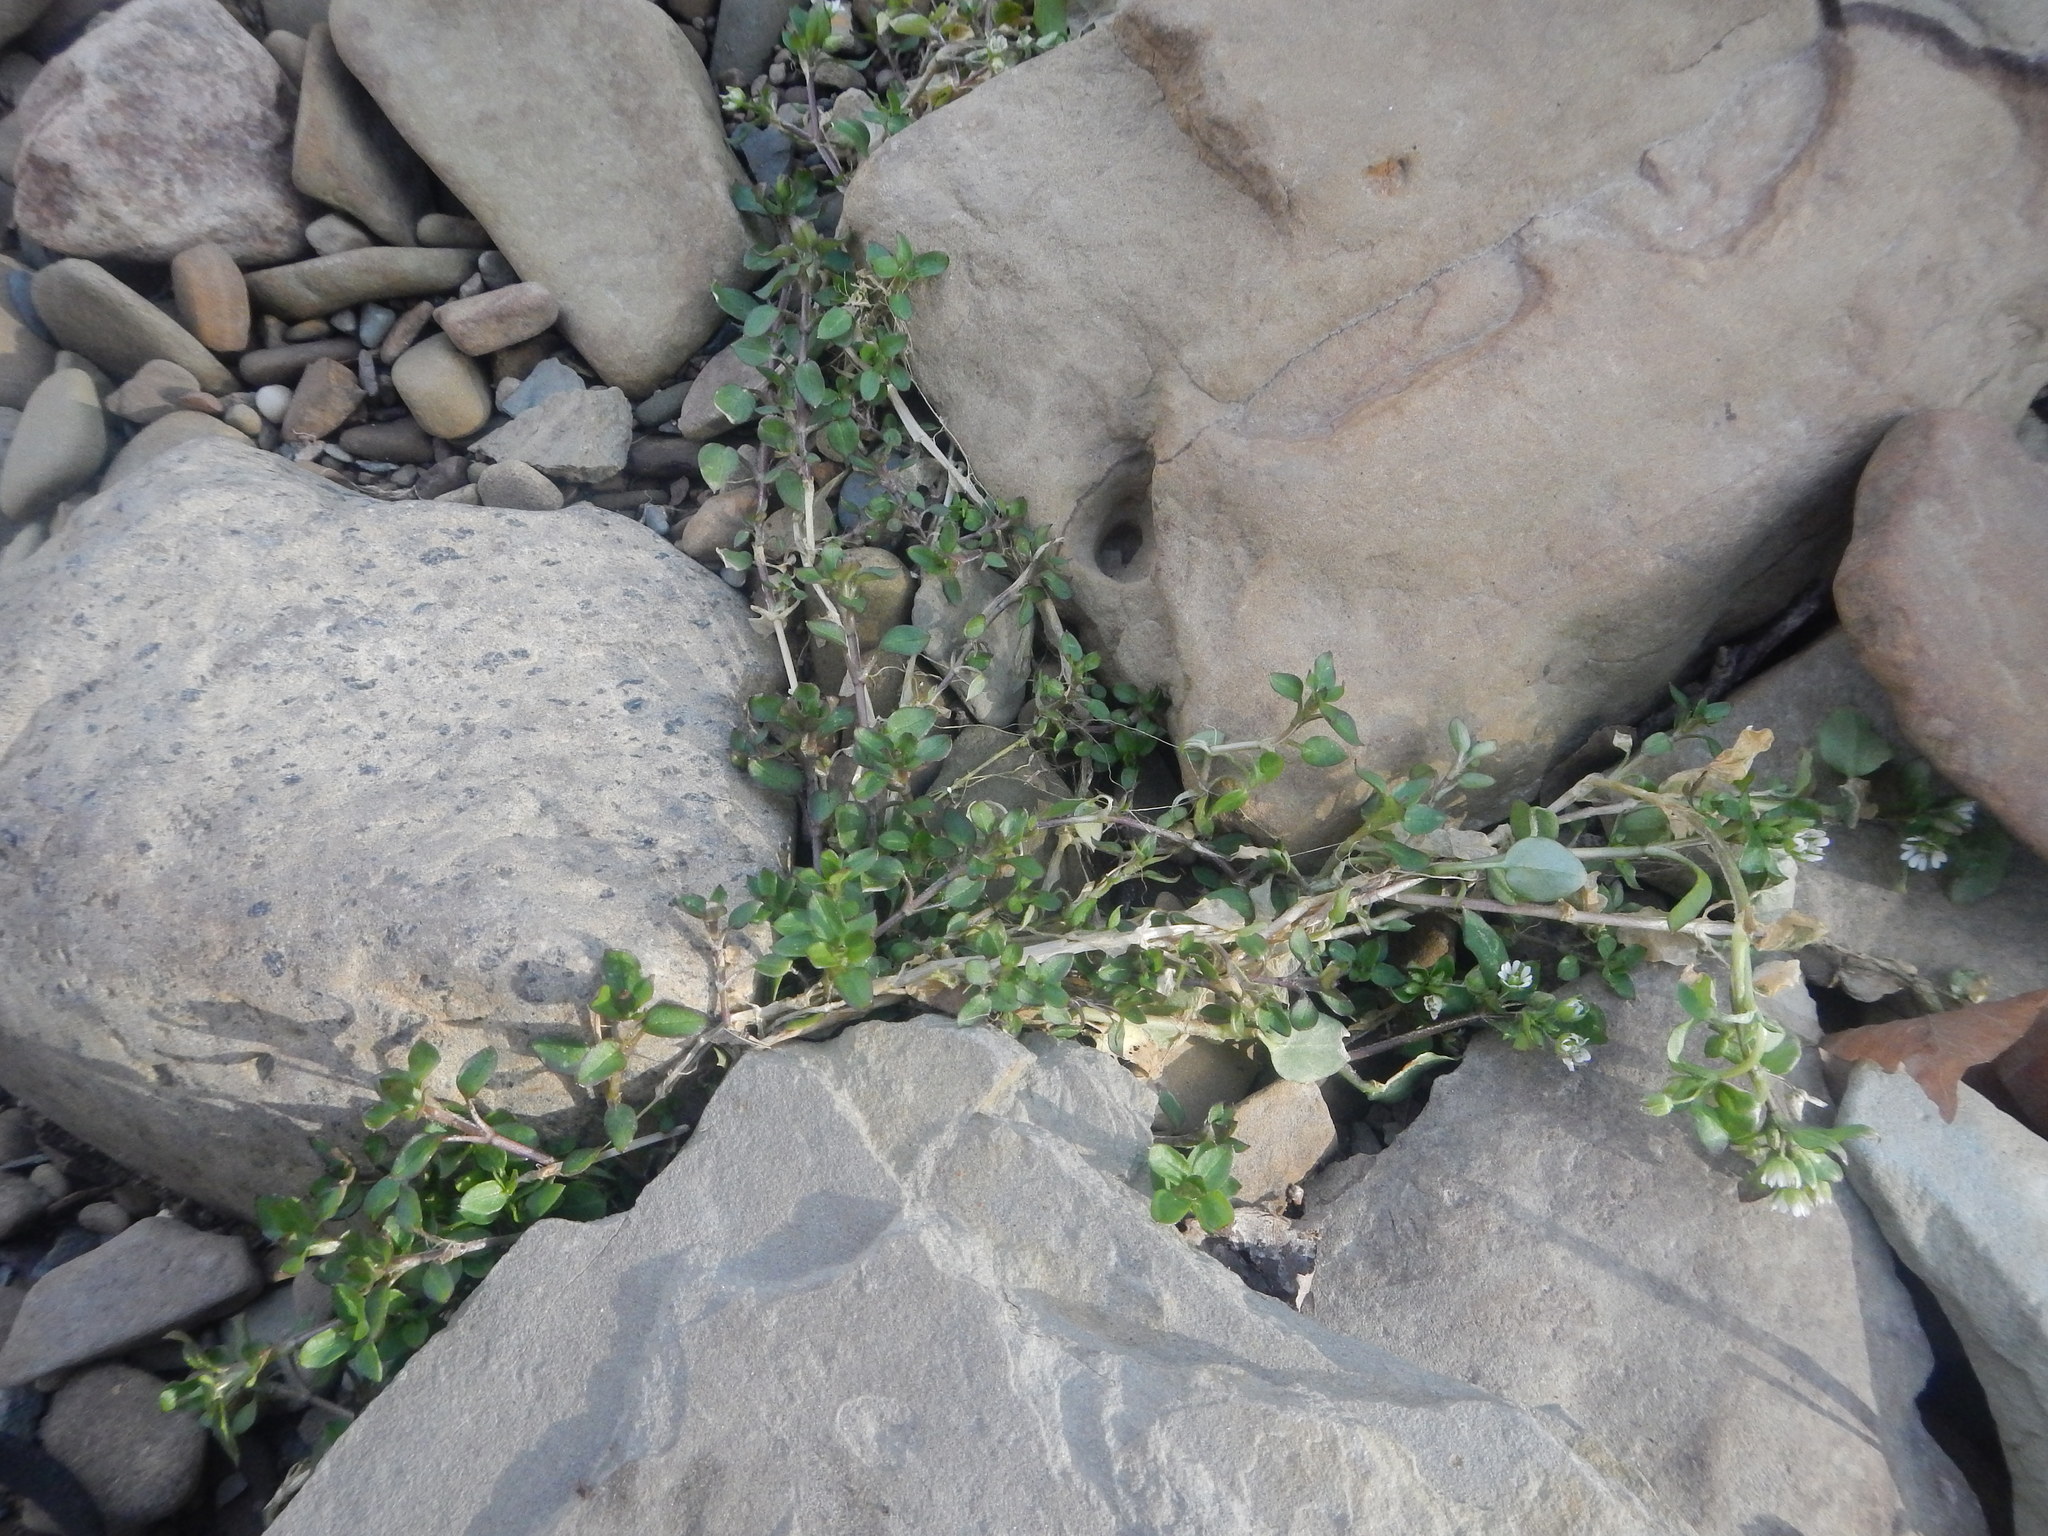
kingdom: Plantae
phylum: Tracheophyta
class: Magnoliopsida
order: Caryophyllales
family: Caryophyllaceae
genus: Stellaria
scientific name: Stellaria media
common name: Common chickweed
